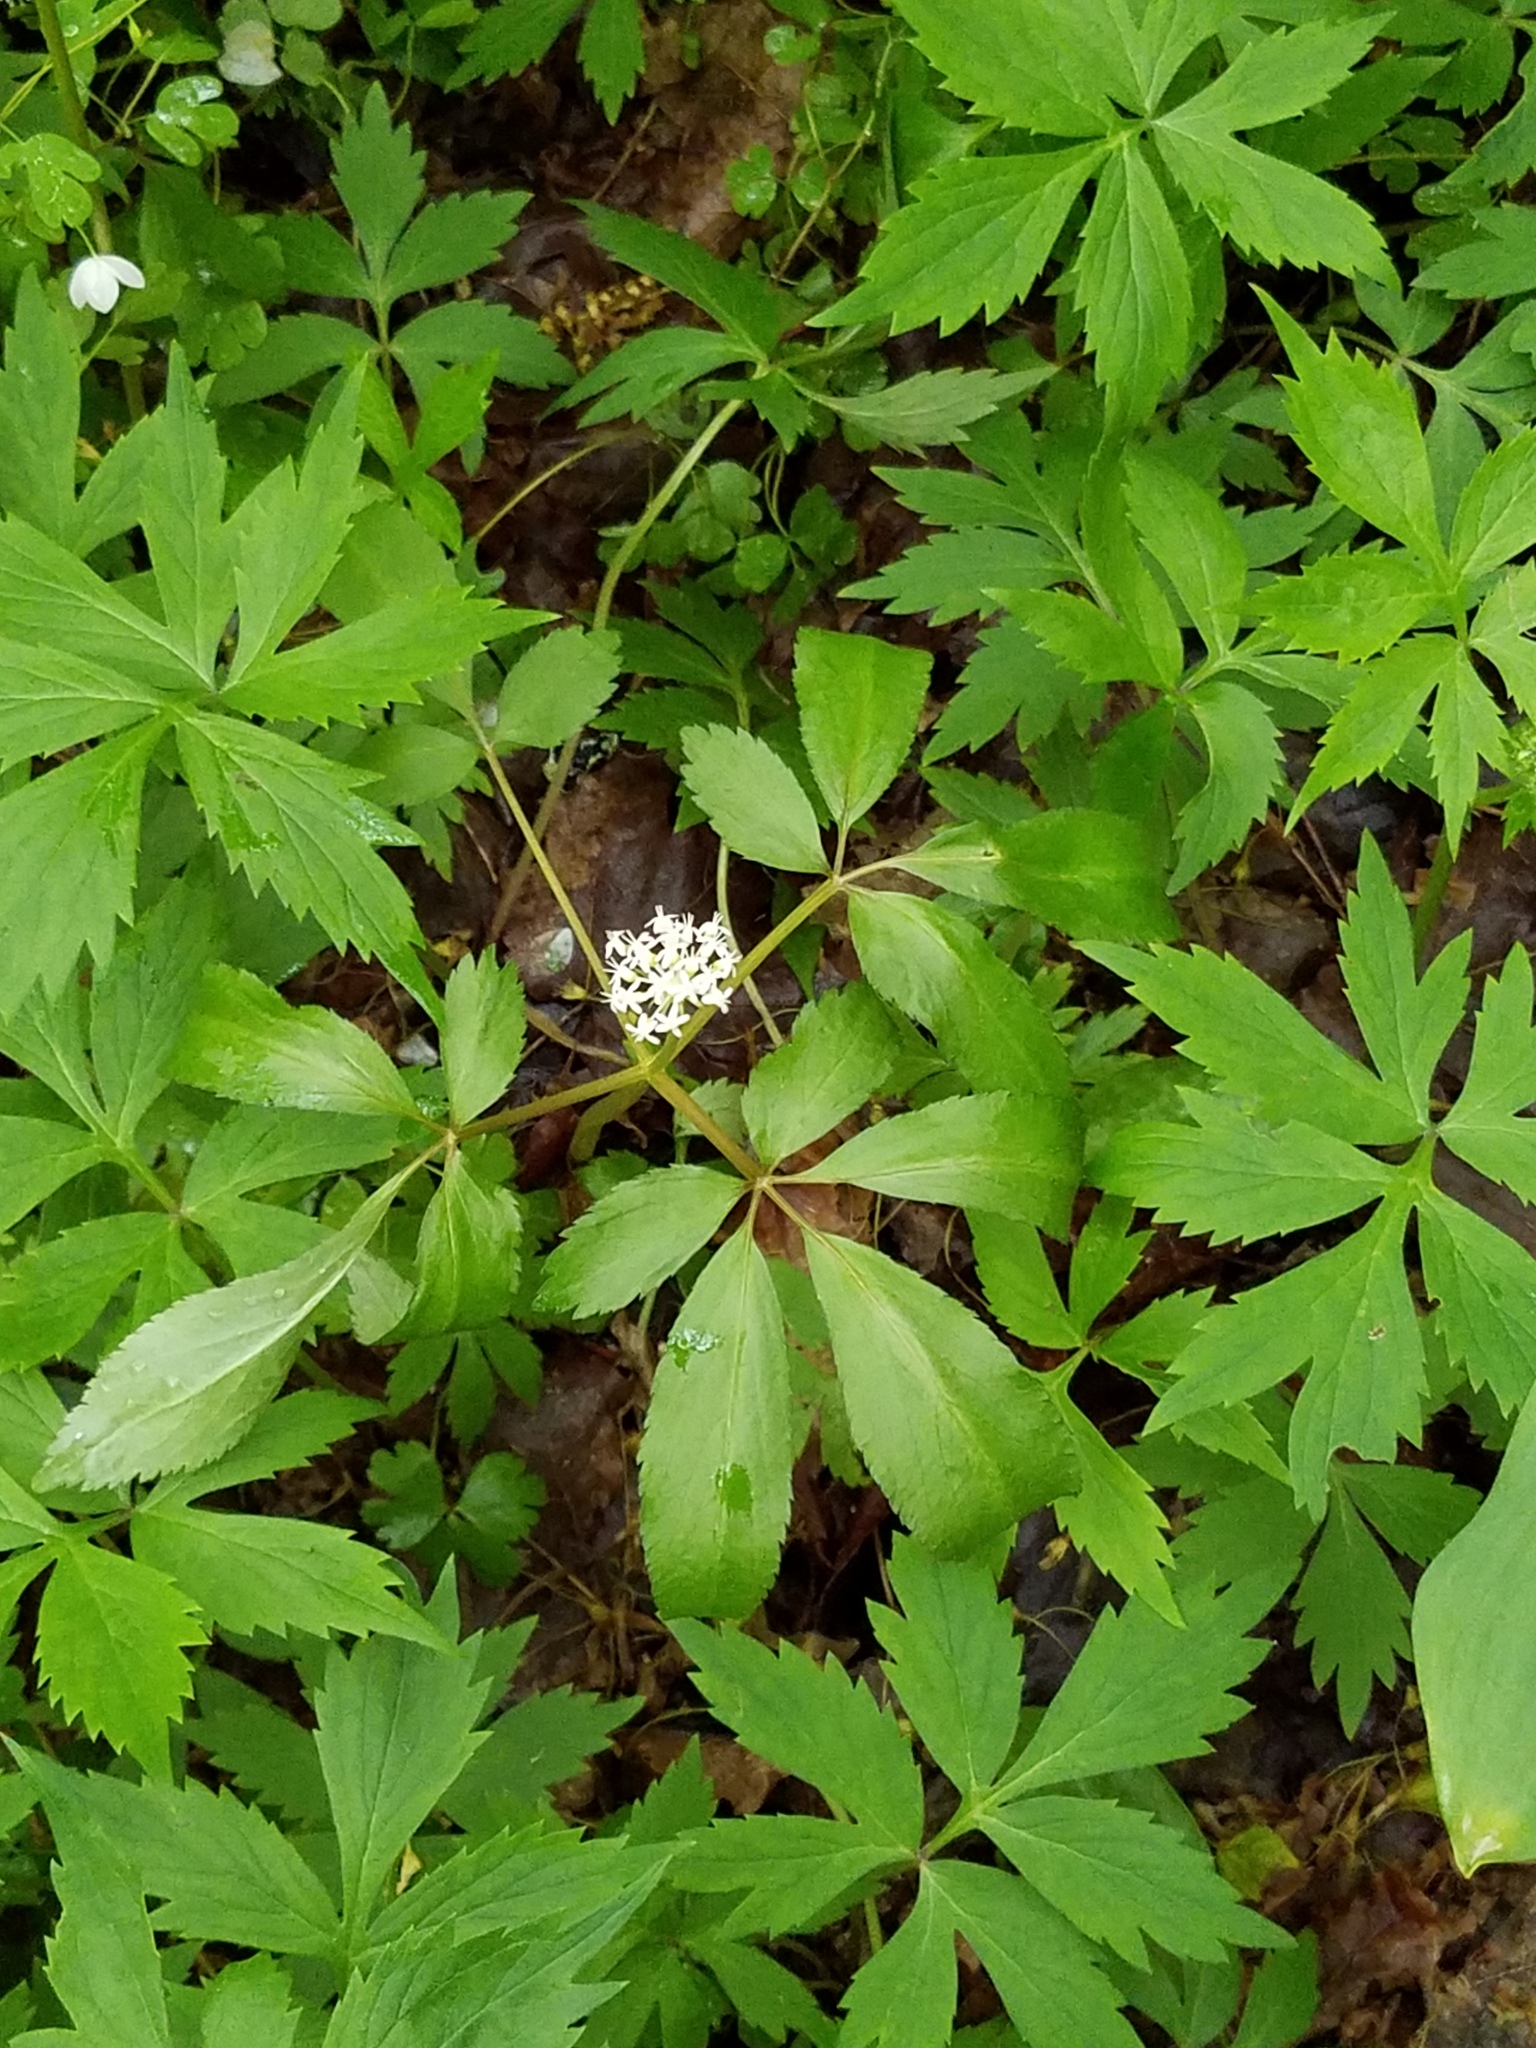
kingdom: Plantae
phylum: Tracheophyta
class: Magnoliopsida
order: Apiales
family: Araliaceae
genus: Panax
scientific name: Panax trifolius
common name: Dwarf ginseng
